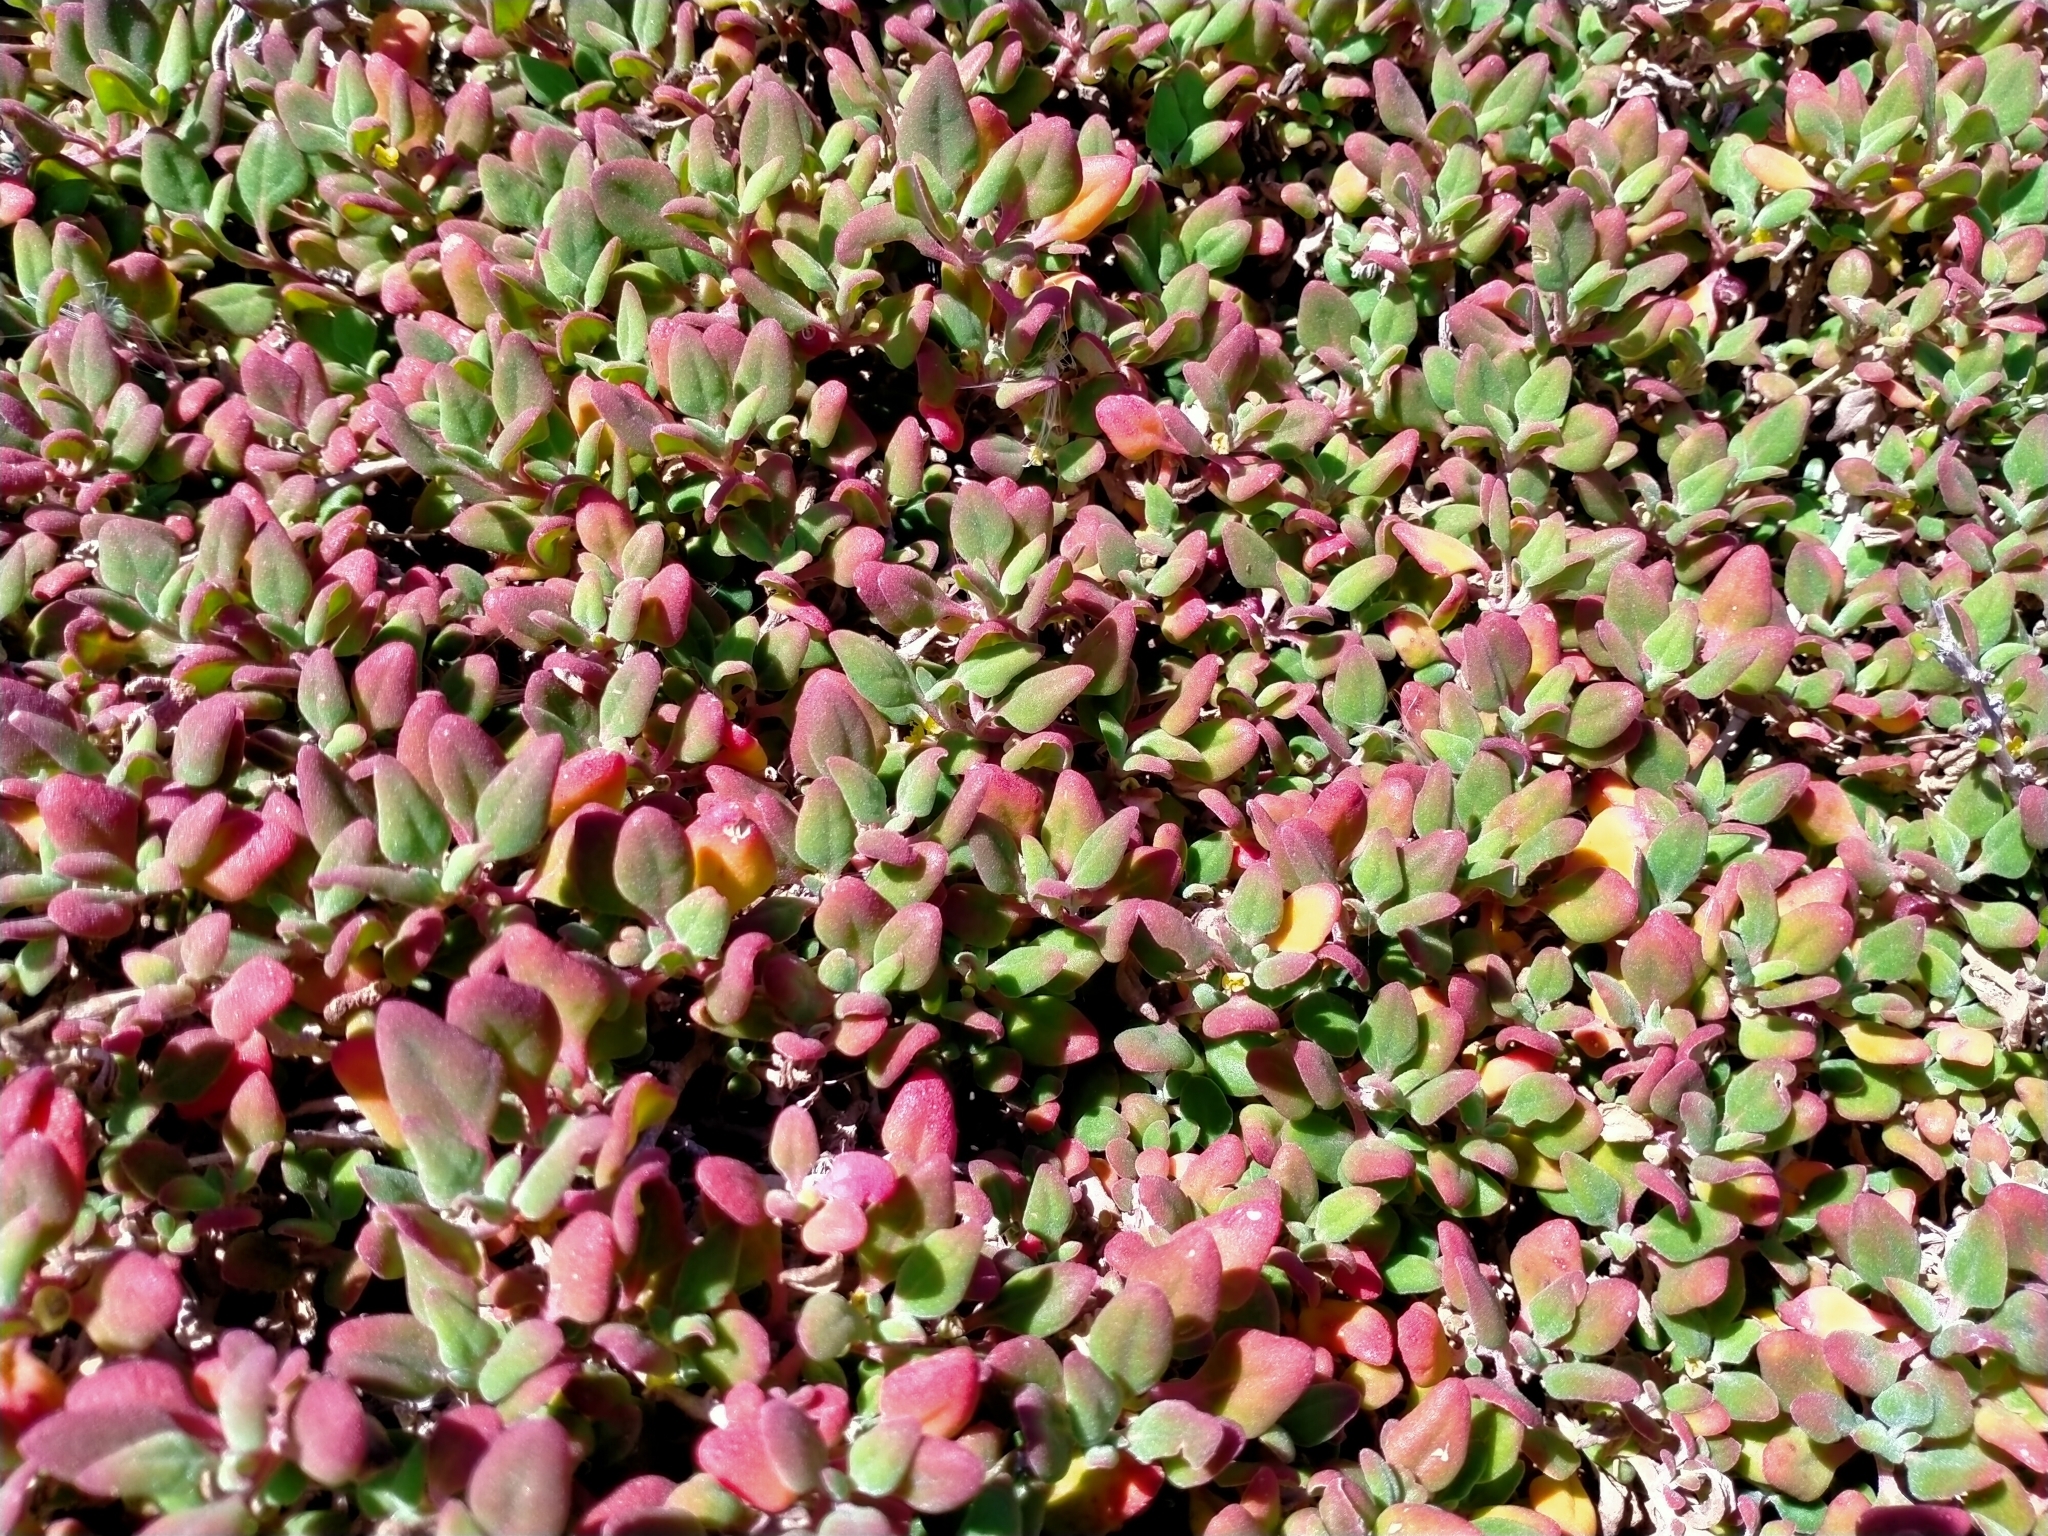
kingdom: Plantae
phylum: Tracheophyta
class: Magnoliopsida
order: Caryophyllales
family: Aizoaceae
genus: Tetragonia
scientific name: Tetragonia implexicoma
